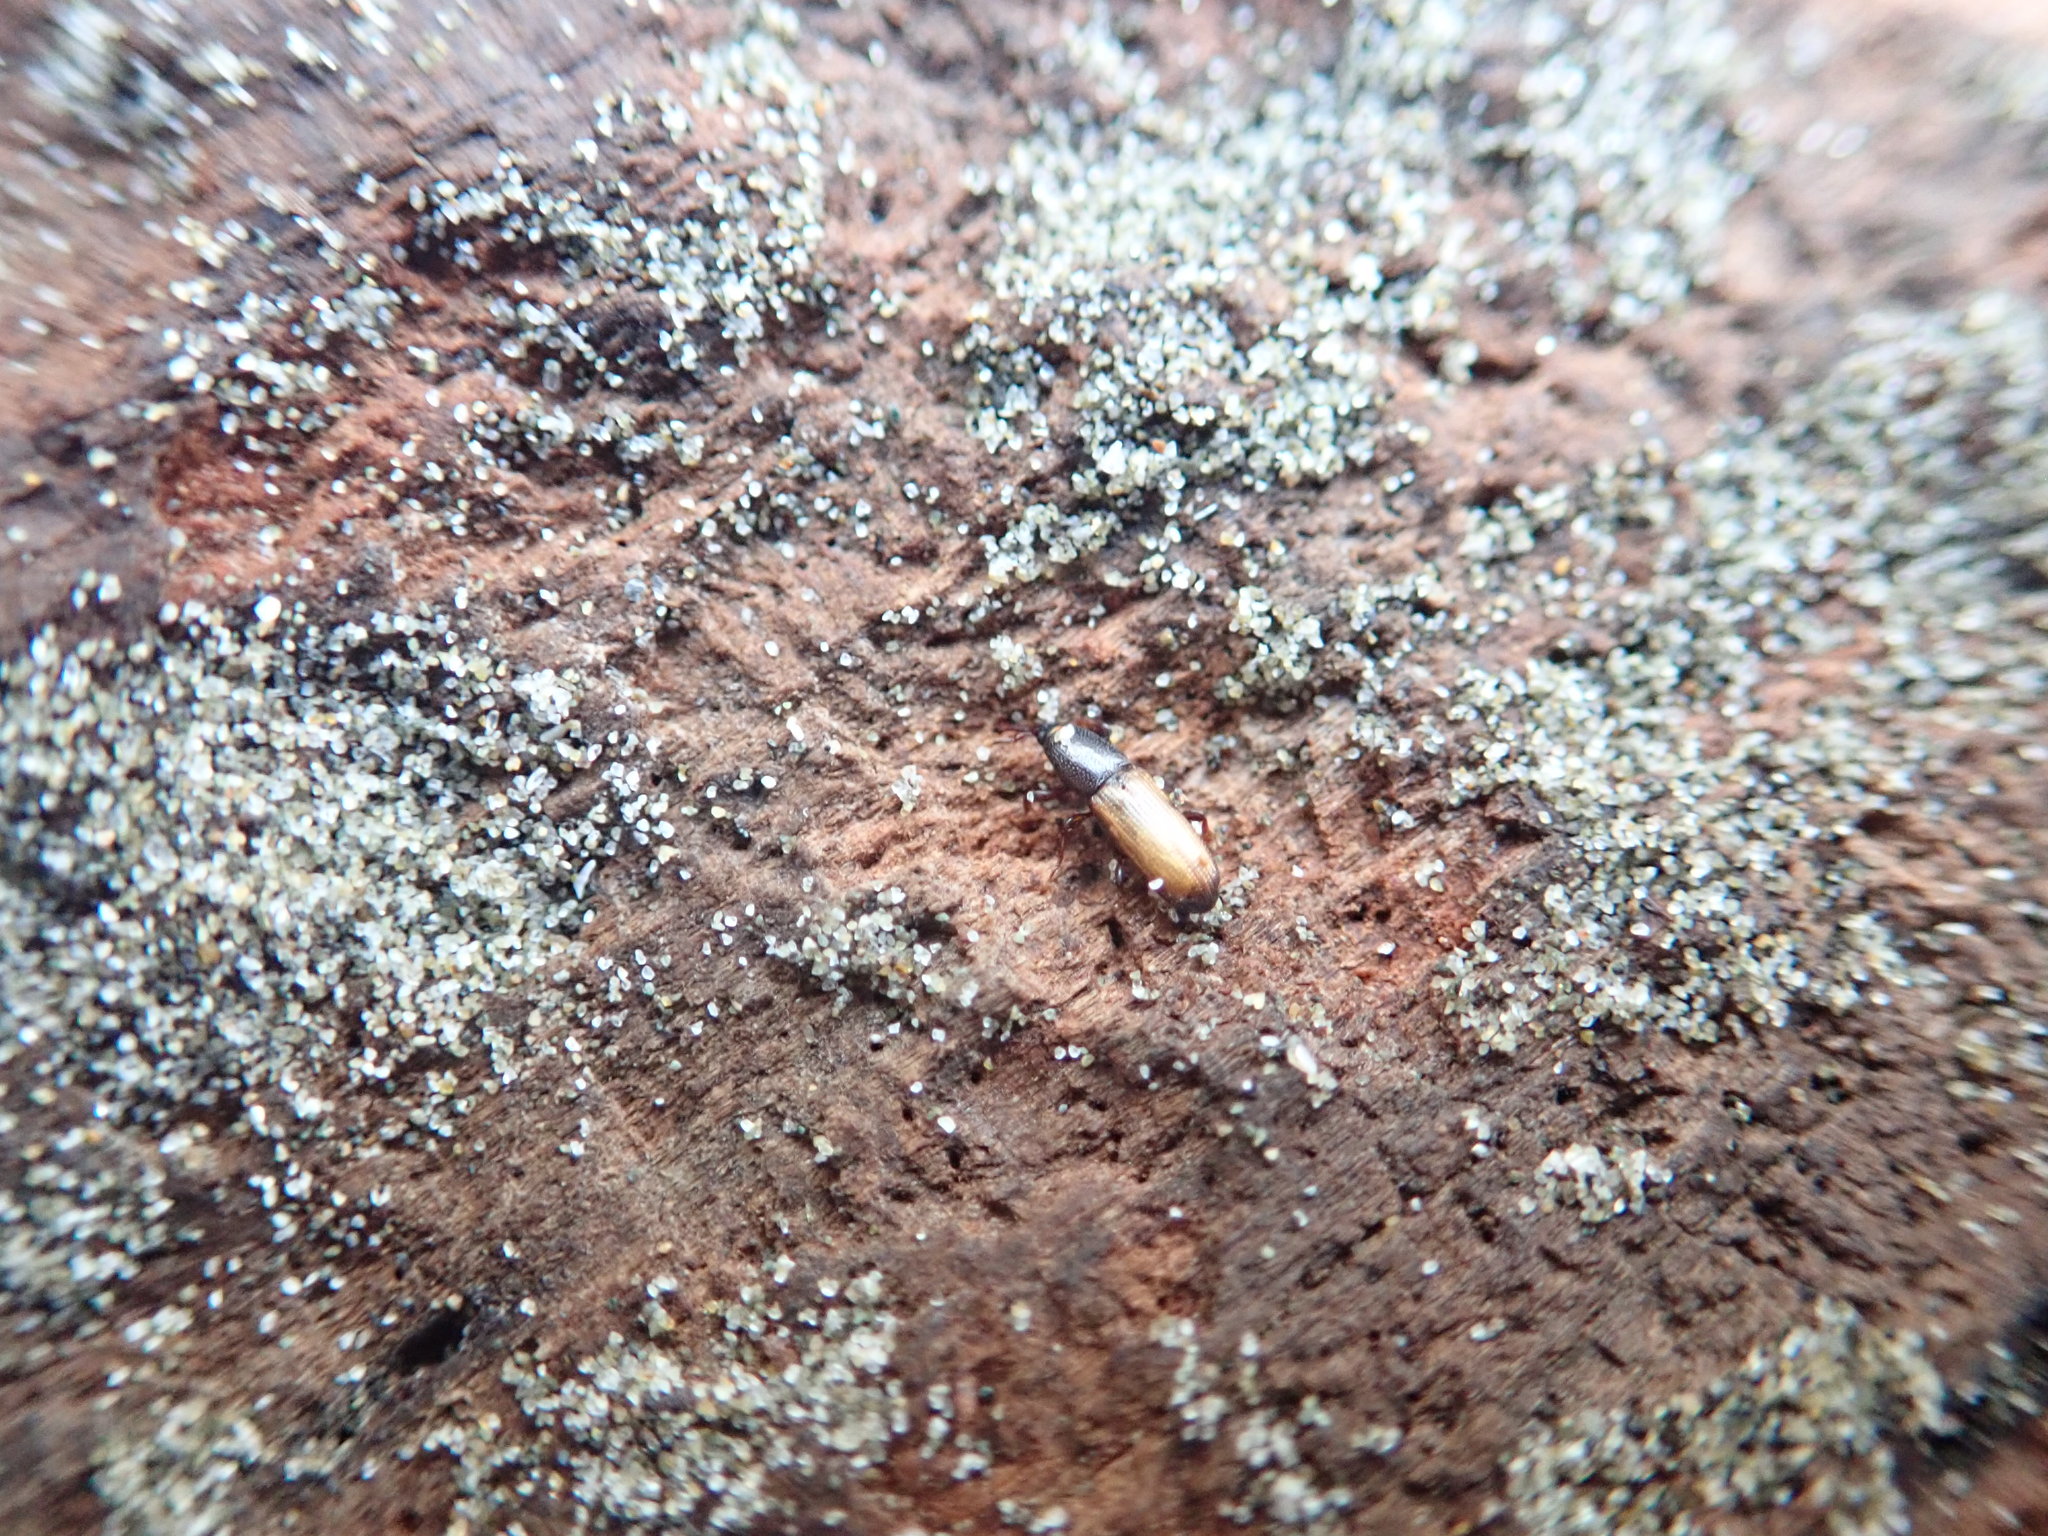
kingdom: Animalia
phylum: Arthropoda
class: Insecta
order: Coleoptera
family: Curculionidae
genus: Mesites
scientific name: Mesites pallidipennis
